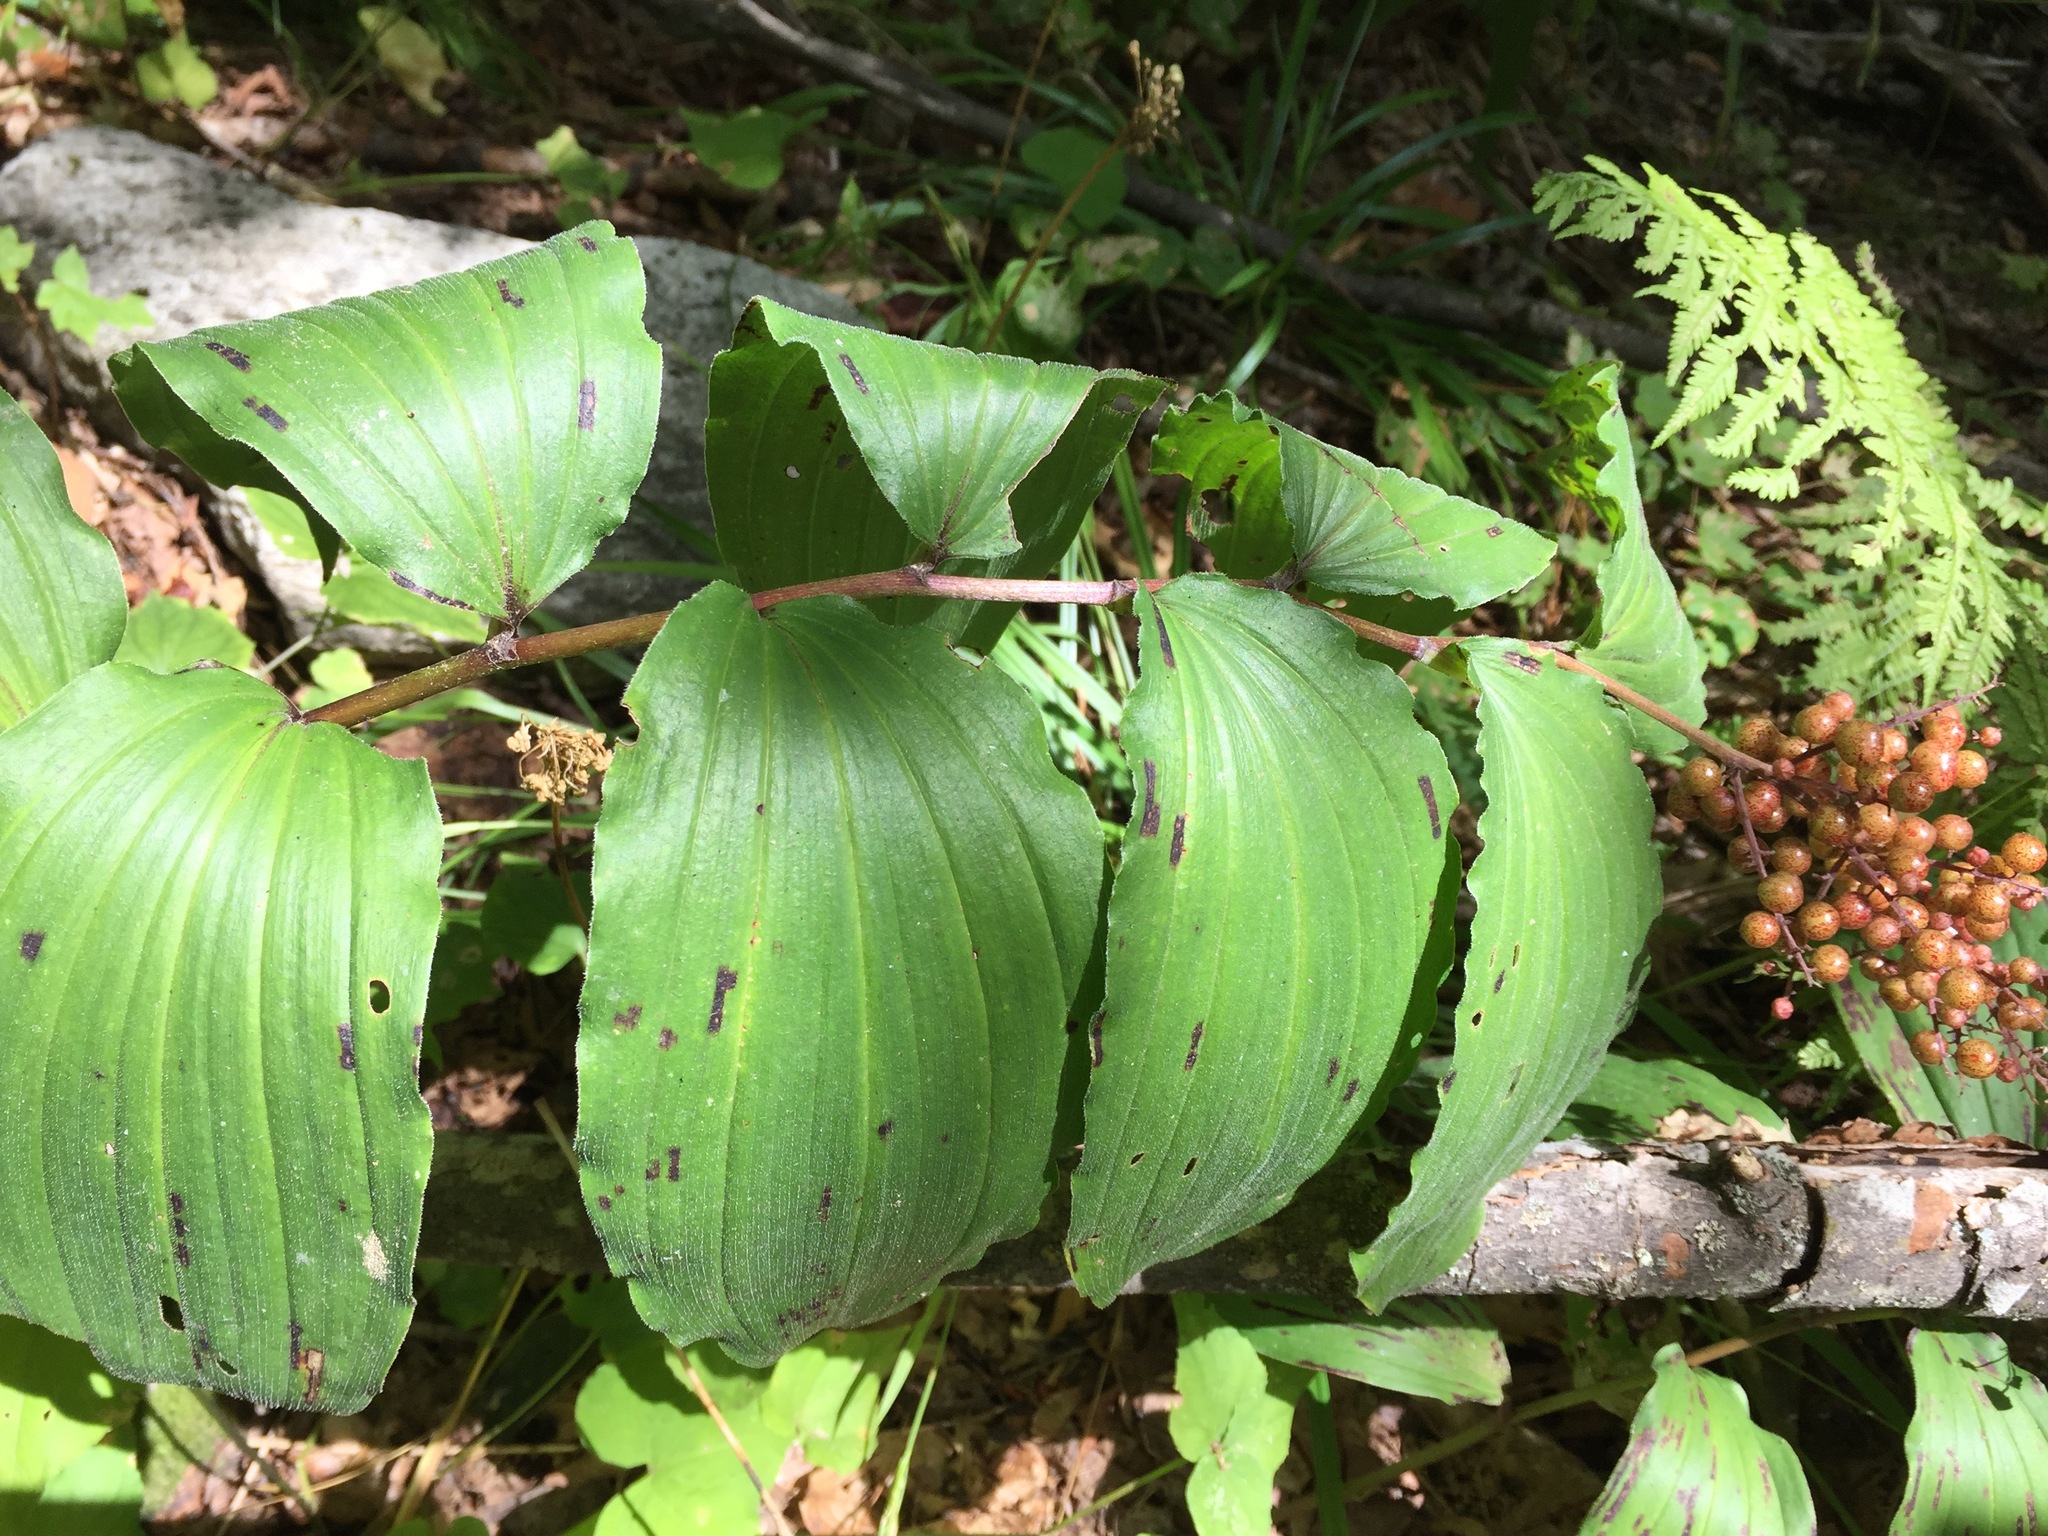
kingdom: Plantae
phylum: Tracheophyta
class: Liliopsida
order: Asparagales
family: Asparagaceae
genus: Maianthemum
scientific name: Maianthemum racemosum
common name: False spikenard
